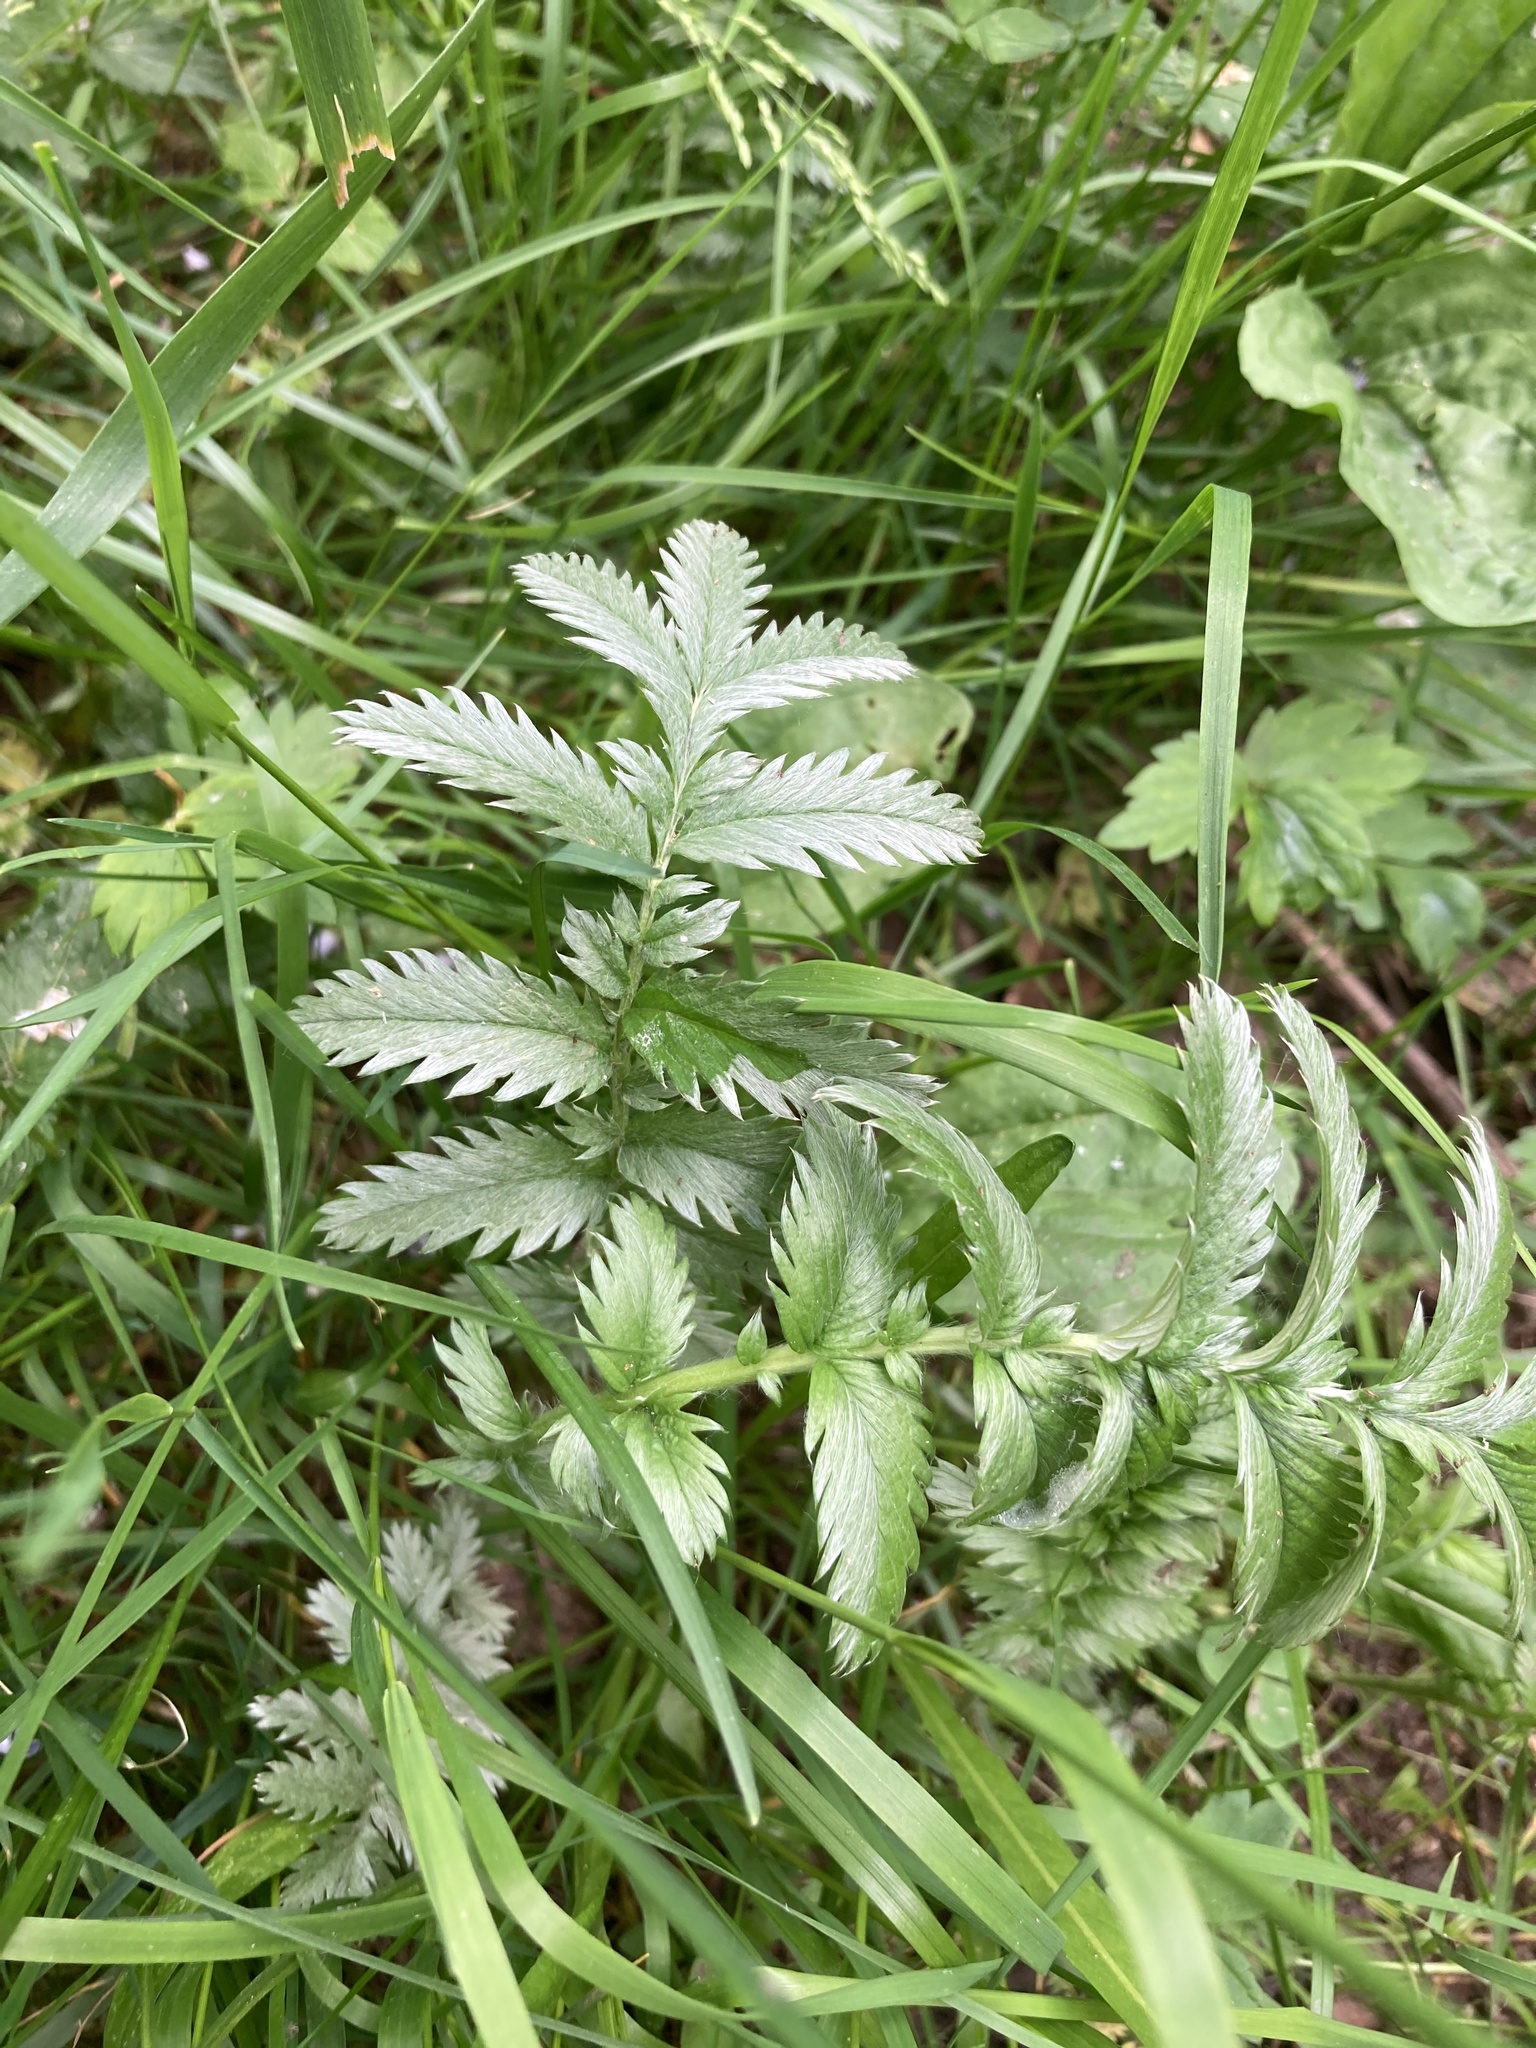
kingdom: Plantae
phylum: Tracheophyta
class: Magnoliopsida
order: Rosales
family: Rosaceae
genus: Argentina
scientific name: Argentina anserina
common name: Common silverweed
